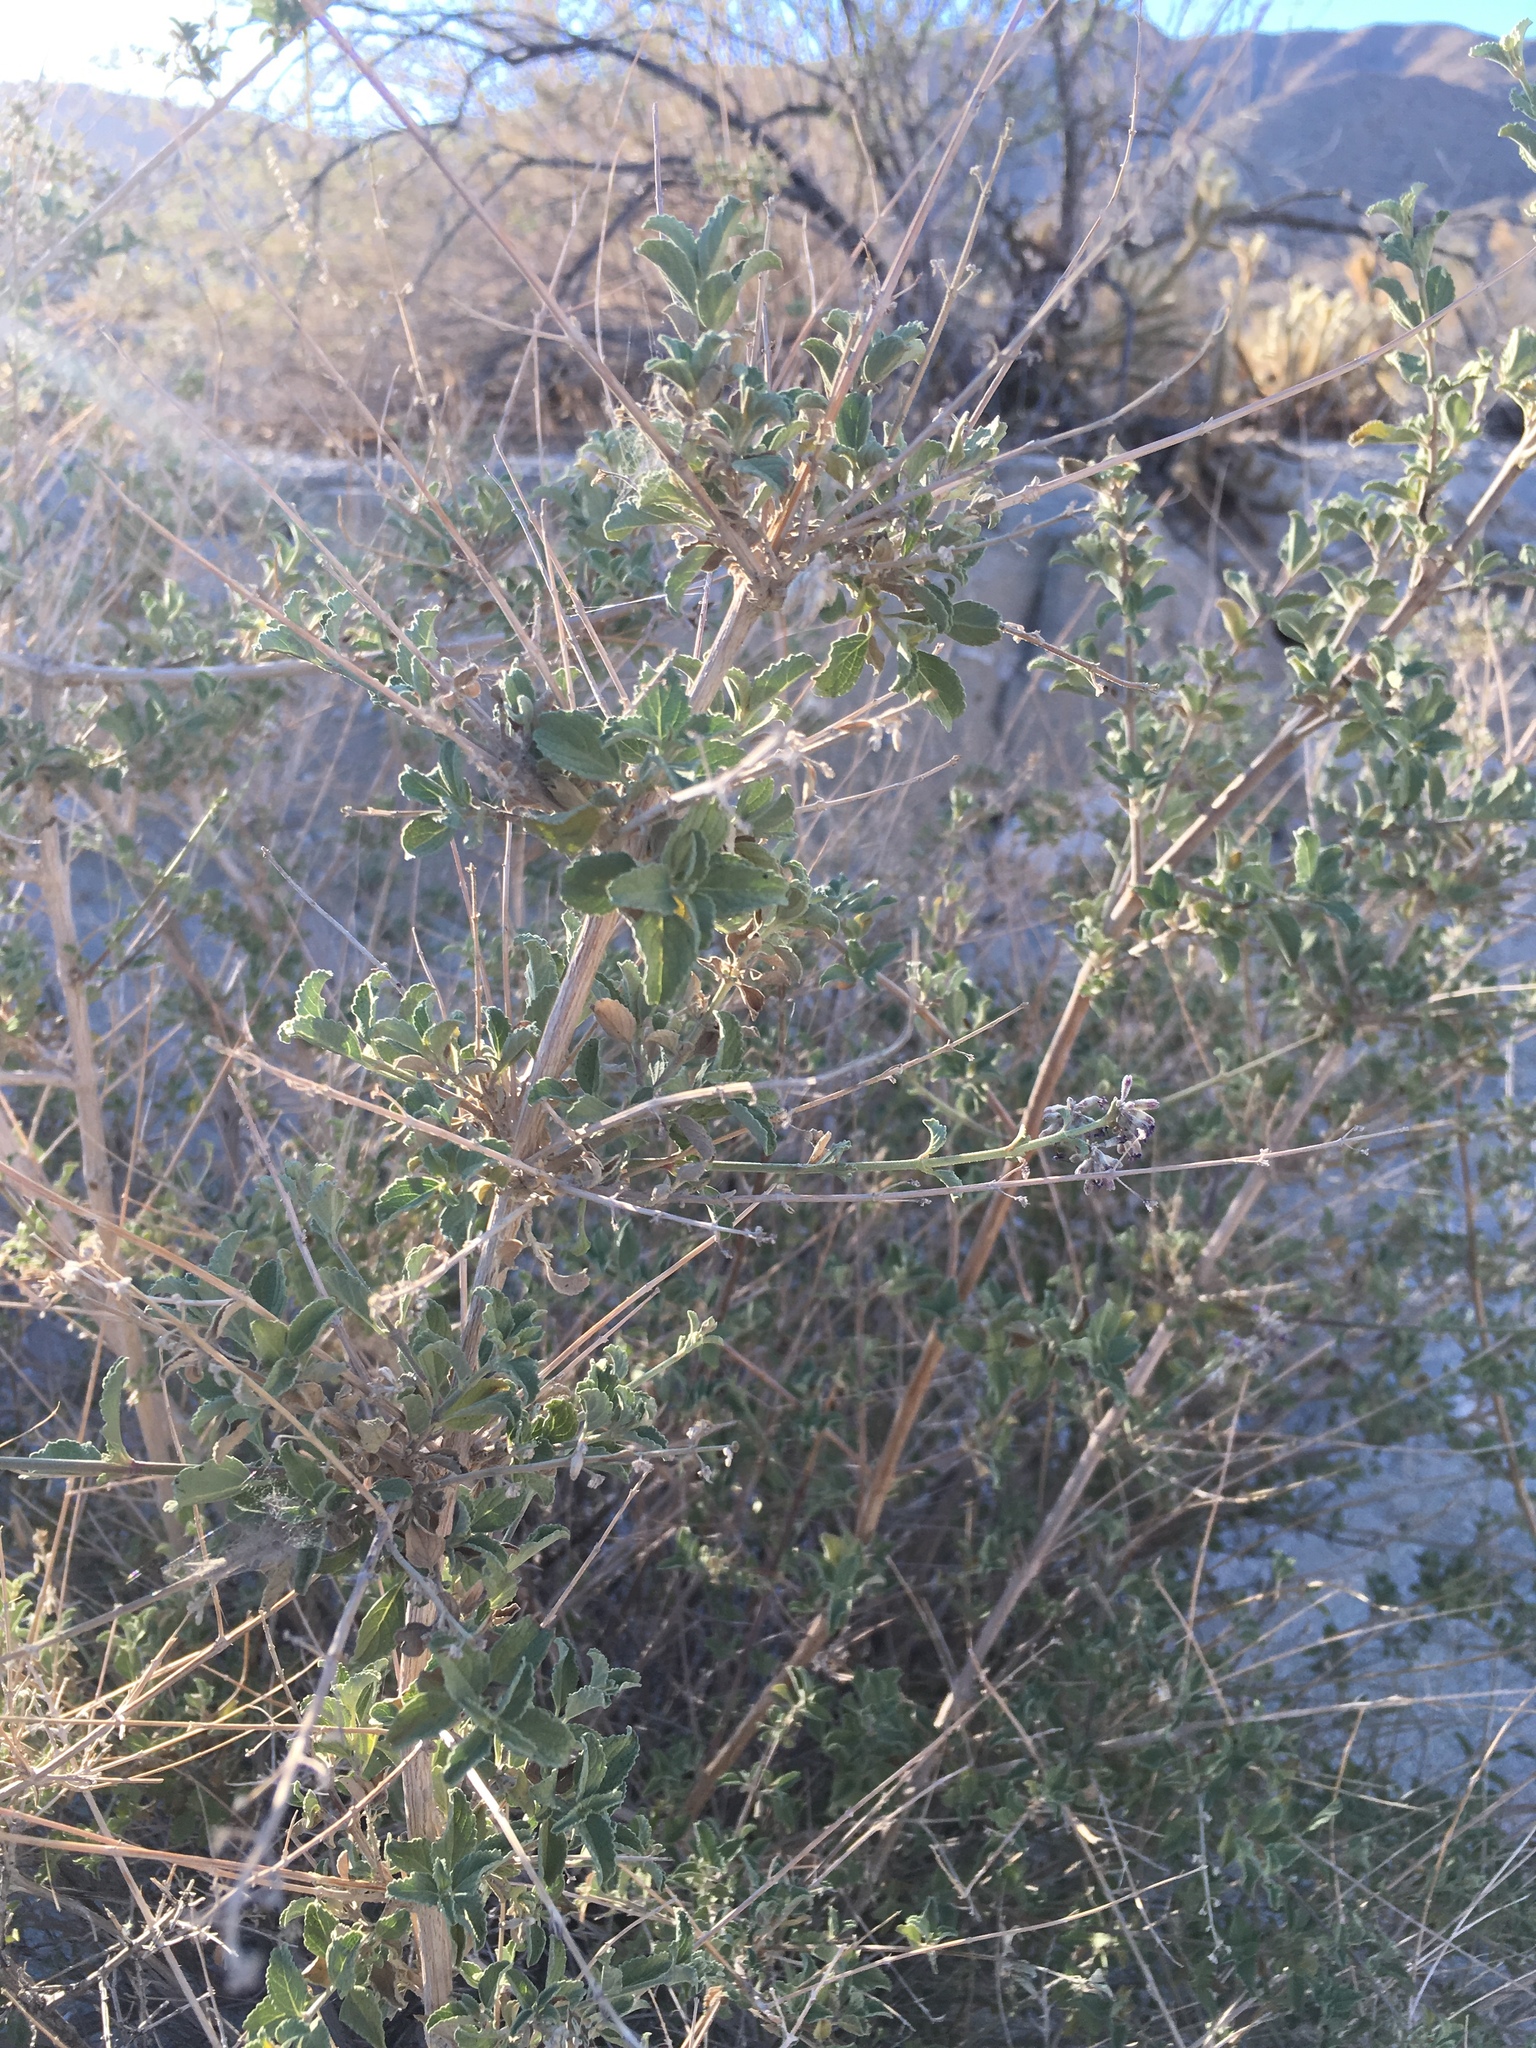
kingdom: Plantae
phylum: Tracheophyta
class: Magnoliopsida
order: Lamiales
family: Lamiaceae
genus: Condea
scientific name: Condea emoryi
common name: Chia
